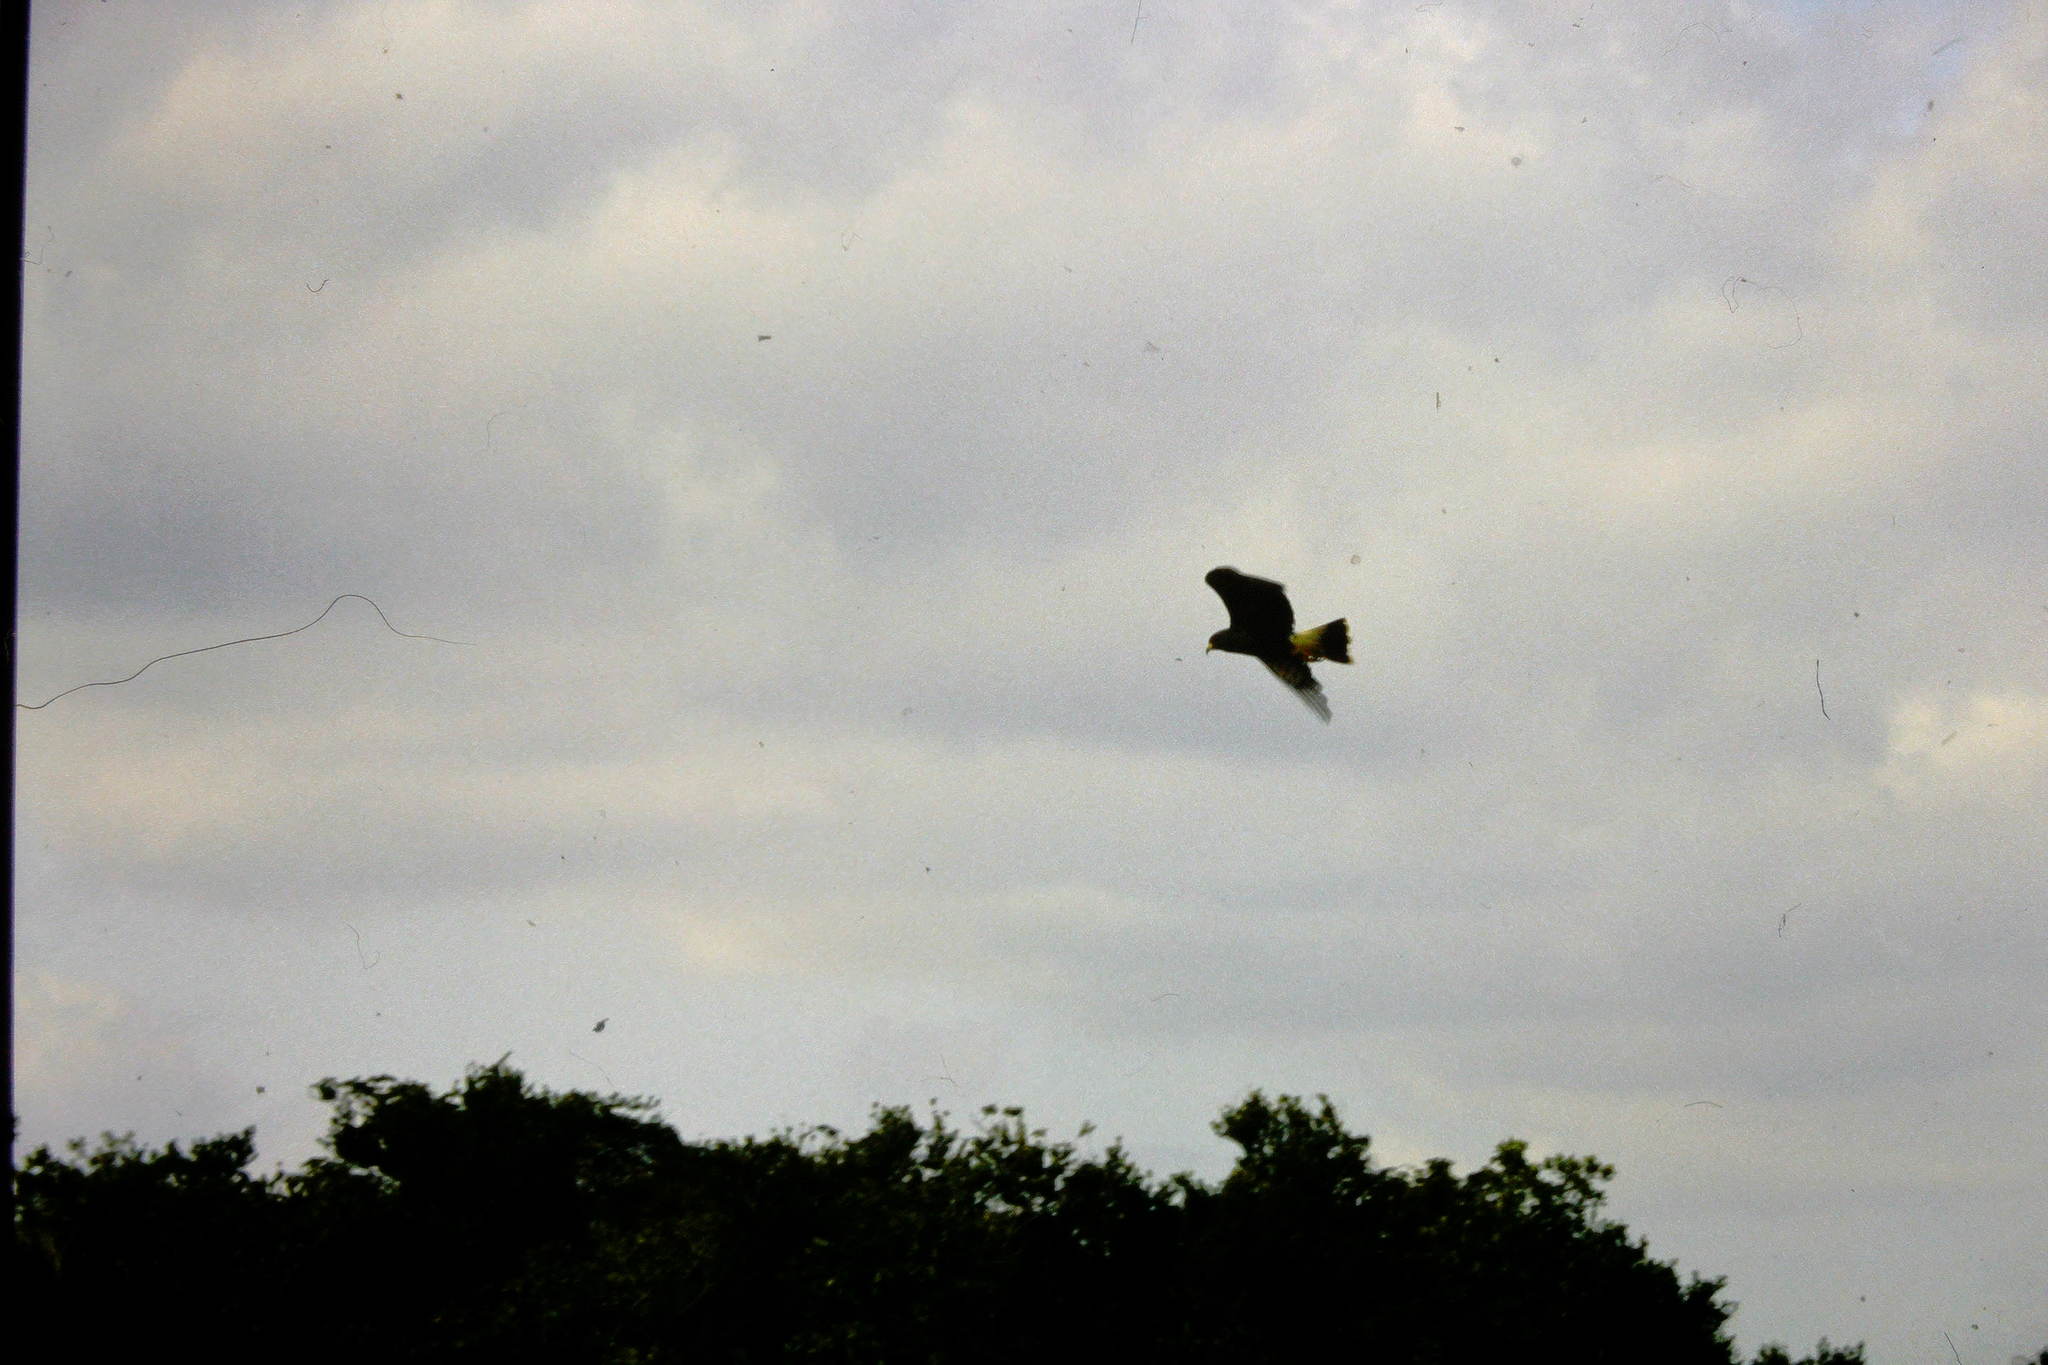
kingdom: Animalia
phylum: Chordata
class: Aves
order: Accipitriformes
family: Accipitridae
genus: Rostrhamus
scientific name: Rostrhamus sociabilis
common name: Snail kite
